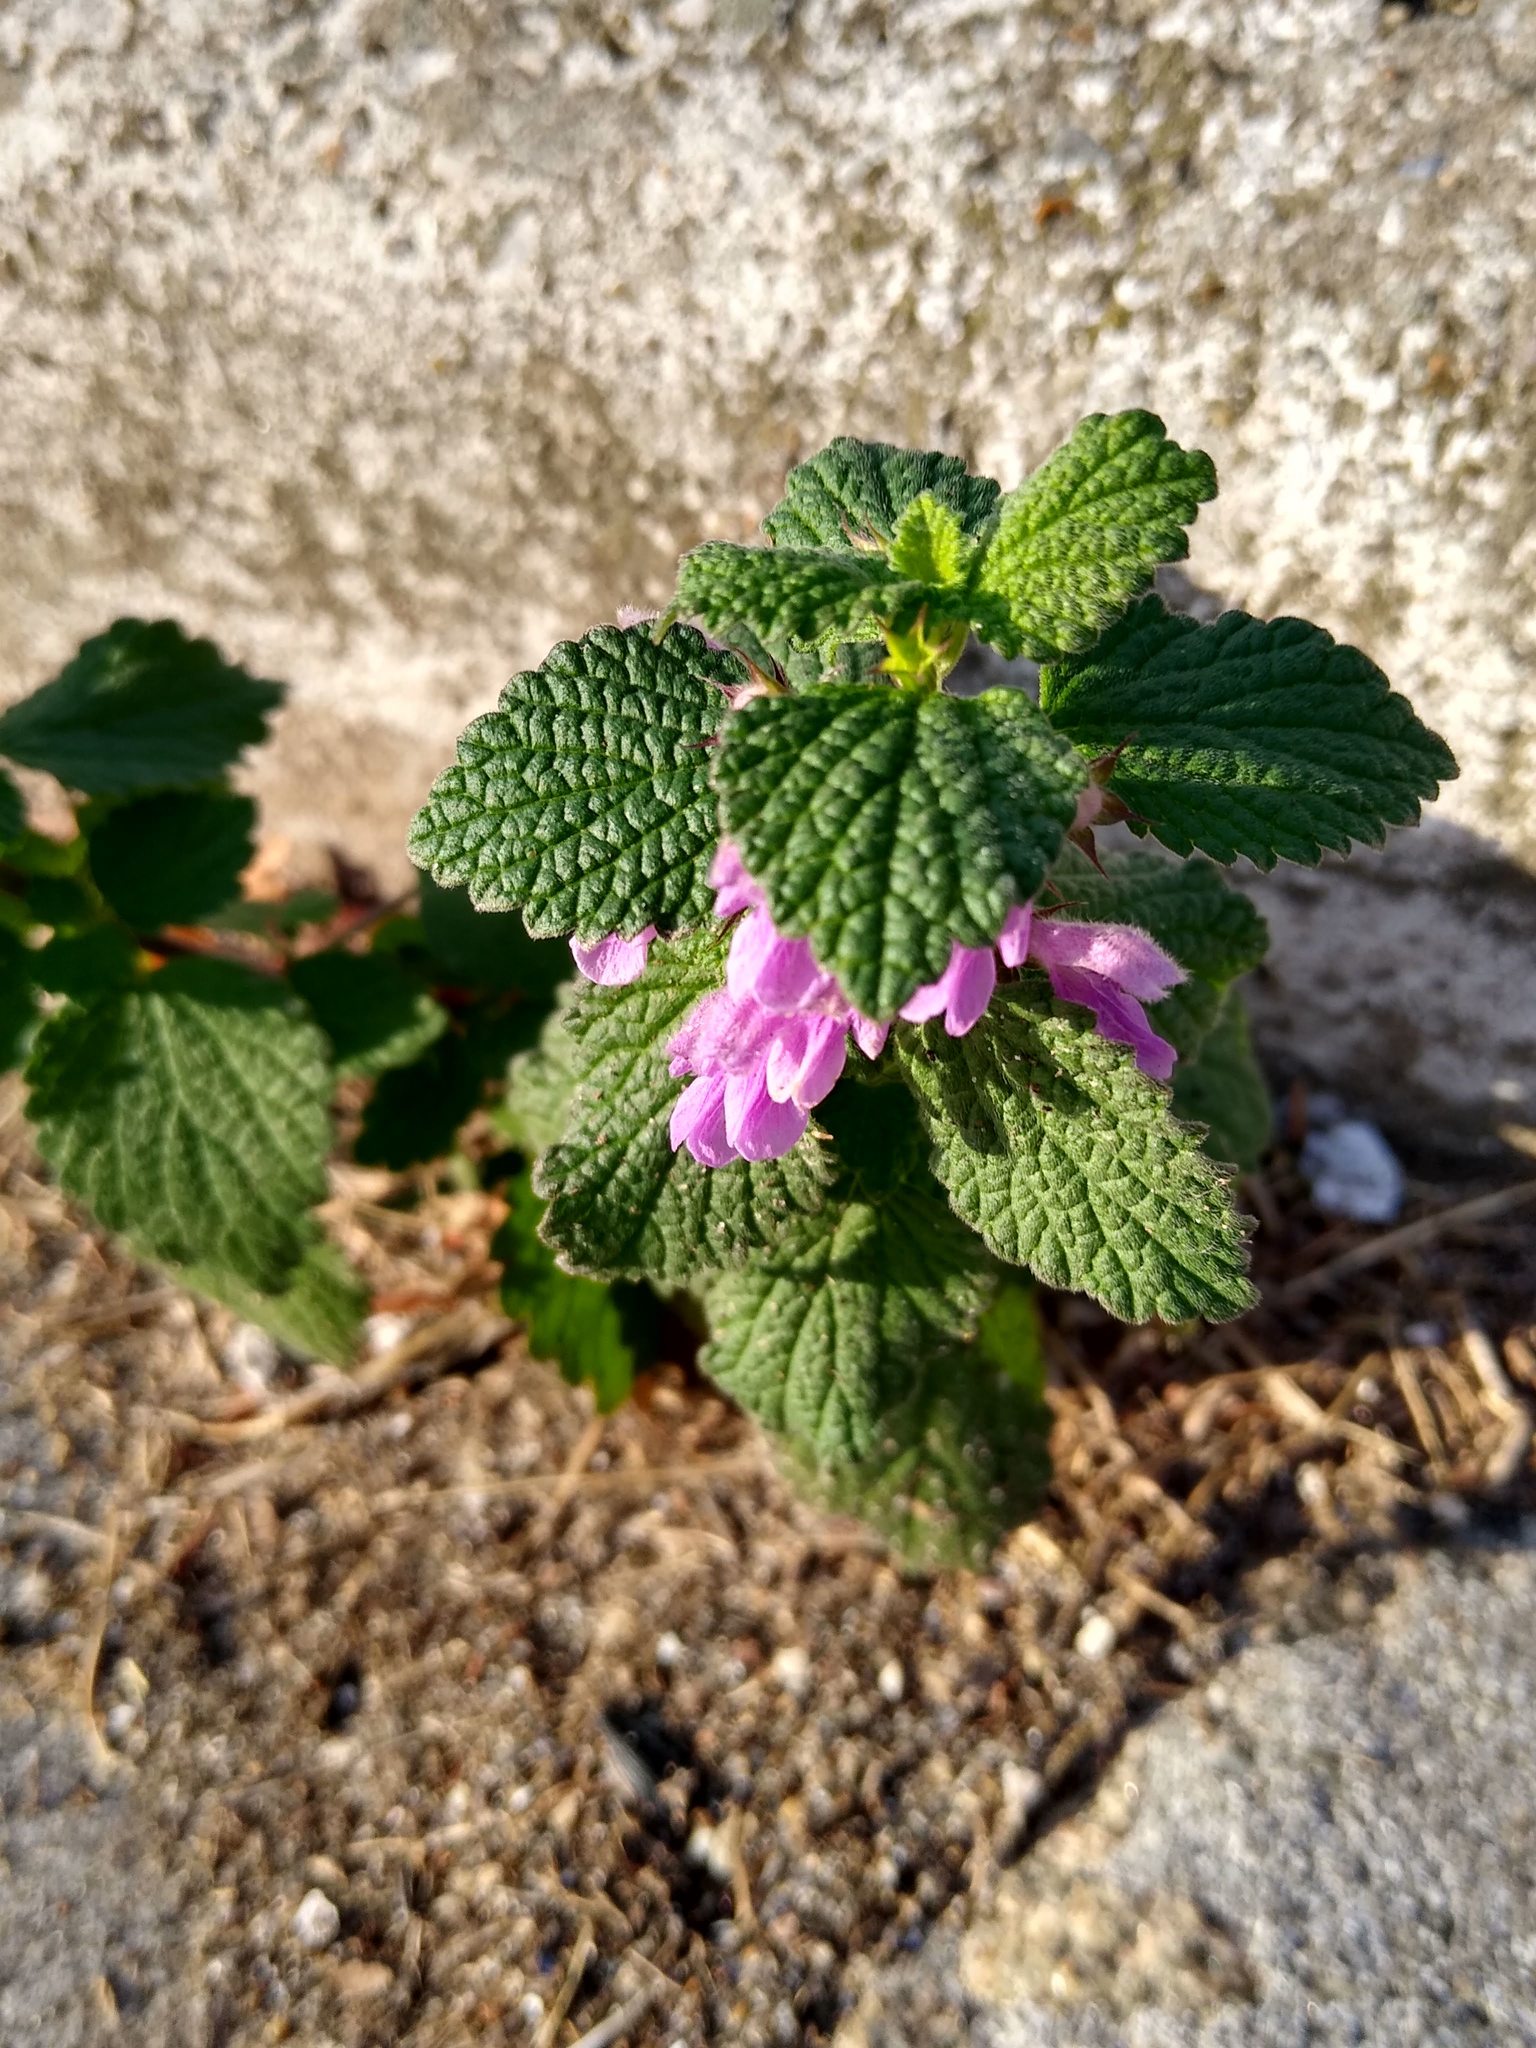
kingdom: Plantae
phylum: Tracheophyta
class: Magnoliopsida
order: Lamiales
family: Lamiaceae
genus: Ballota
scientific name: Ballota nigra
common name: Black horehound
